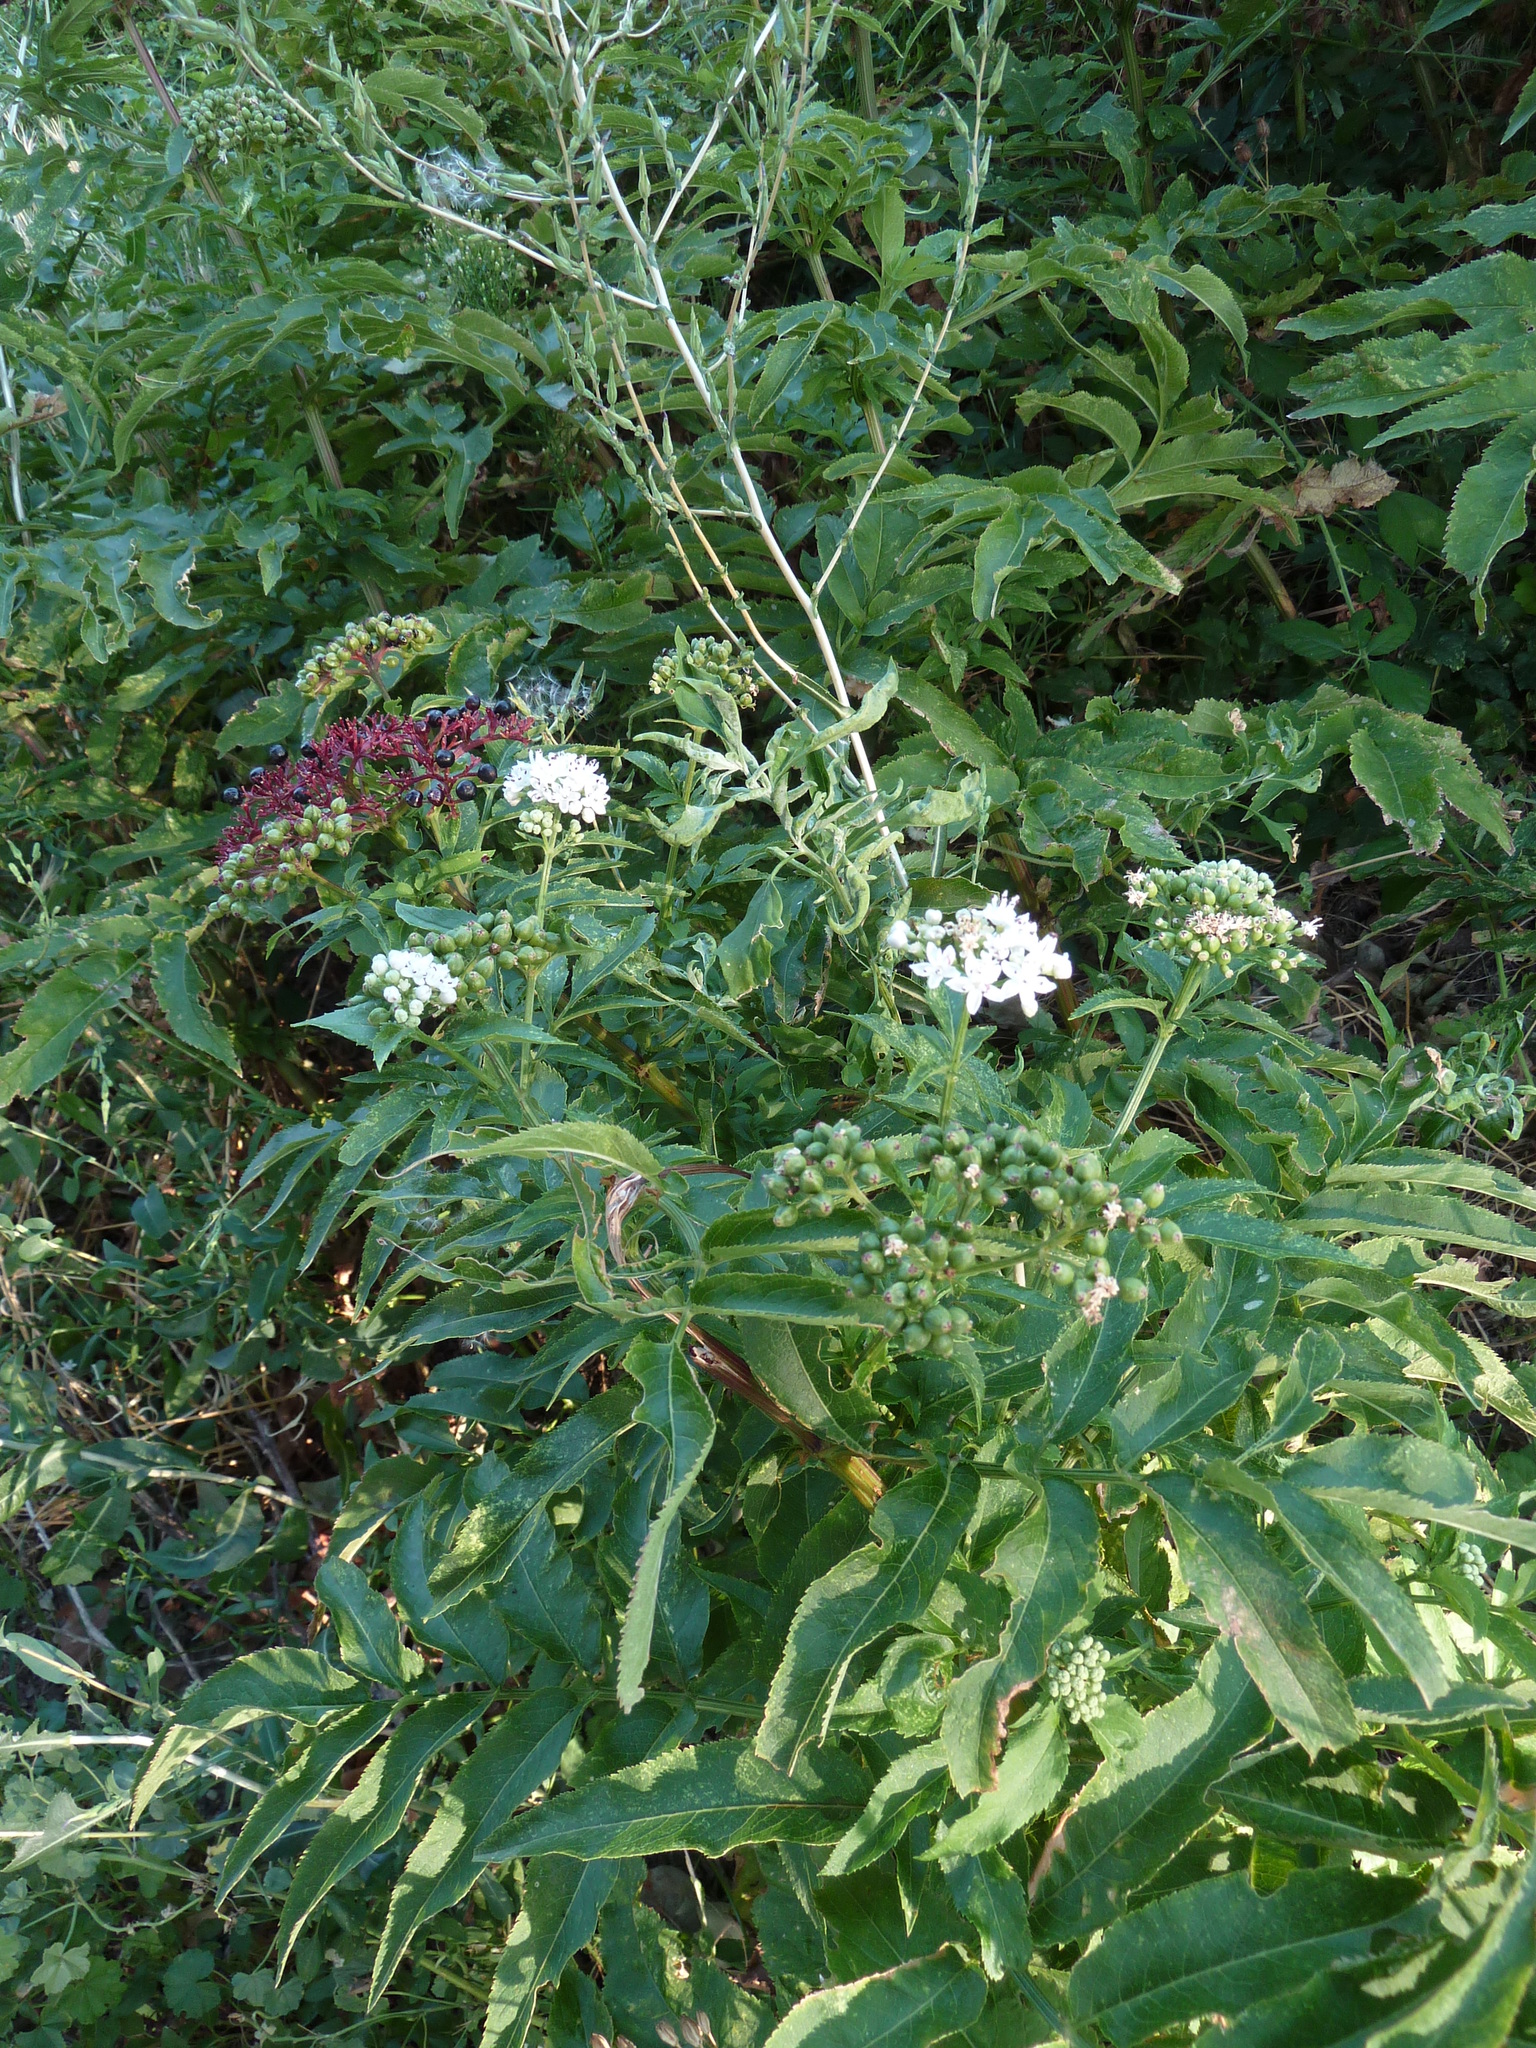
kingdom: Plantae
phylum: Tracheophyta
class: Magnoliopsida
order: Dipsacales
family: Viburnaceae
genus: Sambucus
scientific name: Sambucus ebulus
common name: Dwarf elder
